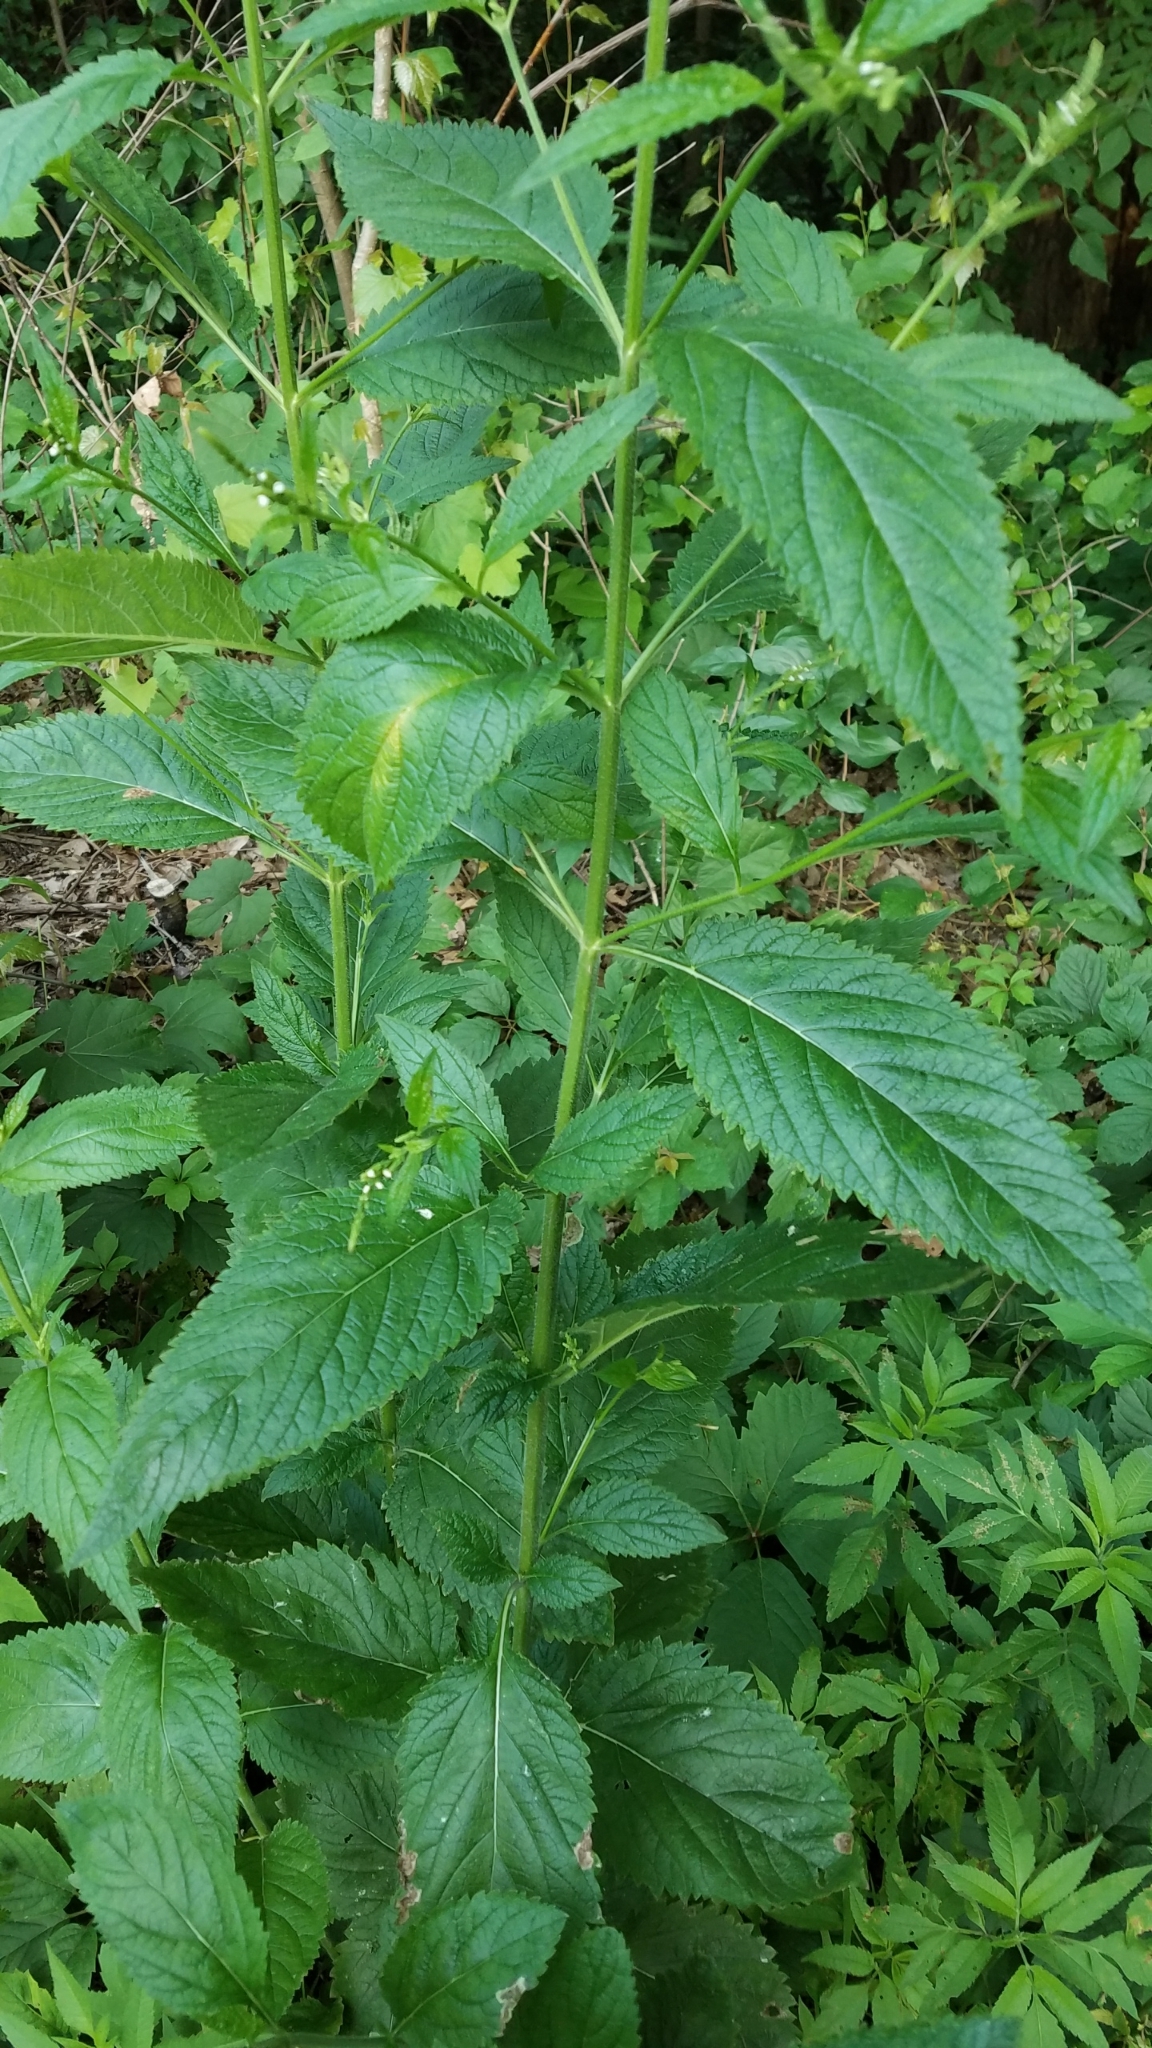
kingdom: Plantae
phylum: Tracheophyta
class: Magnoliopsida
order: Lamiales
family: Verbenaceae
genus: Verbena
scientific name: Verbena urticifolia
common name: Nettle-leaved vervain
